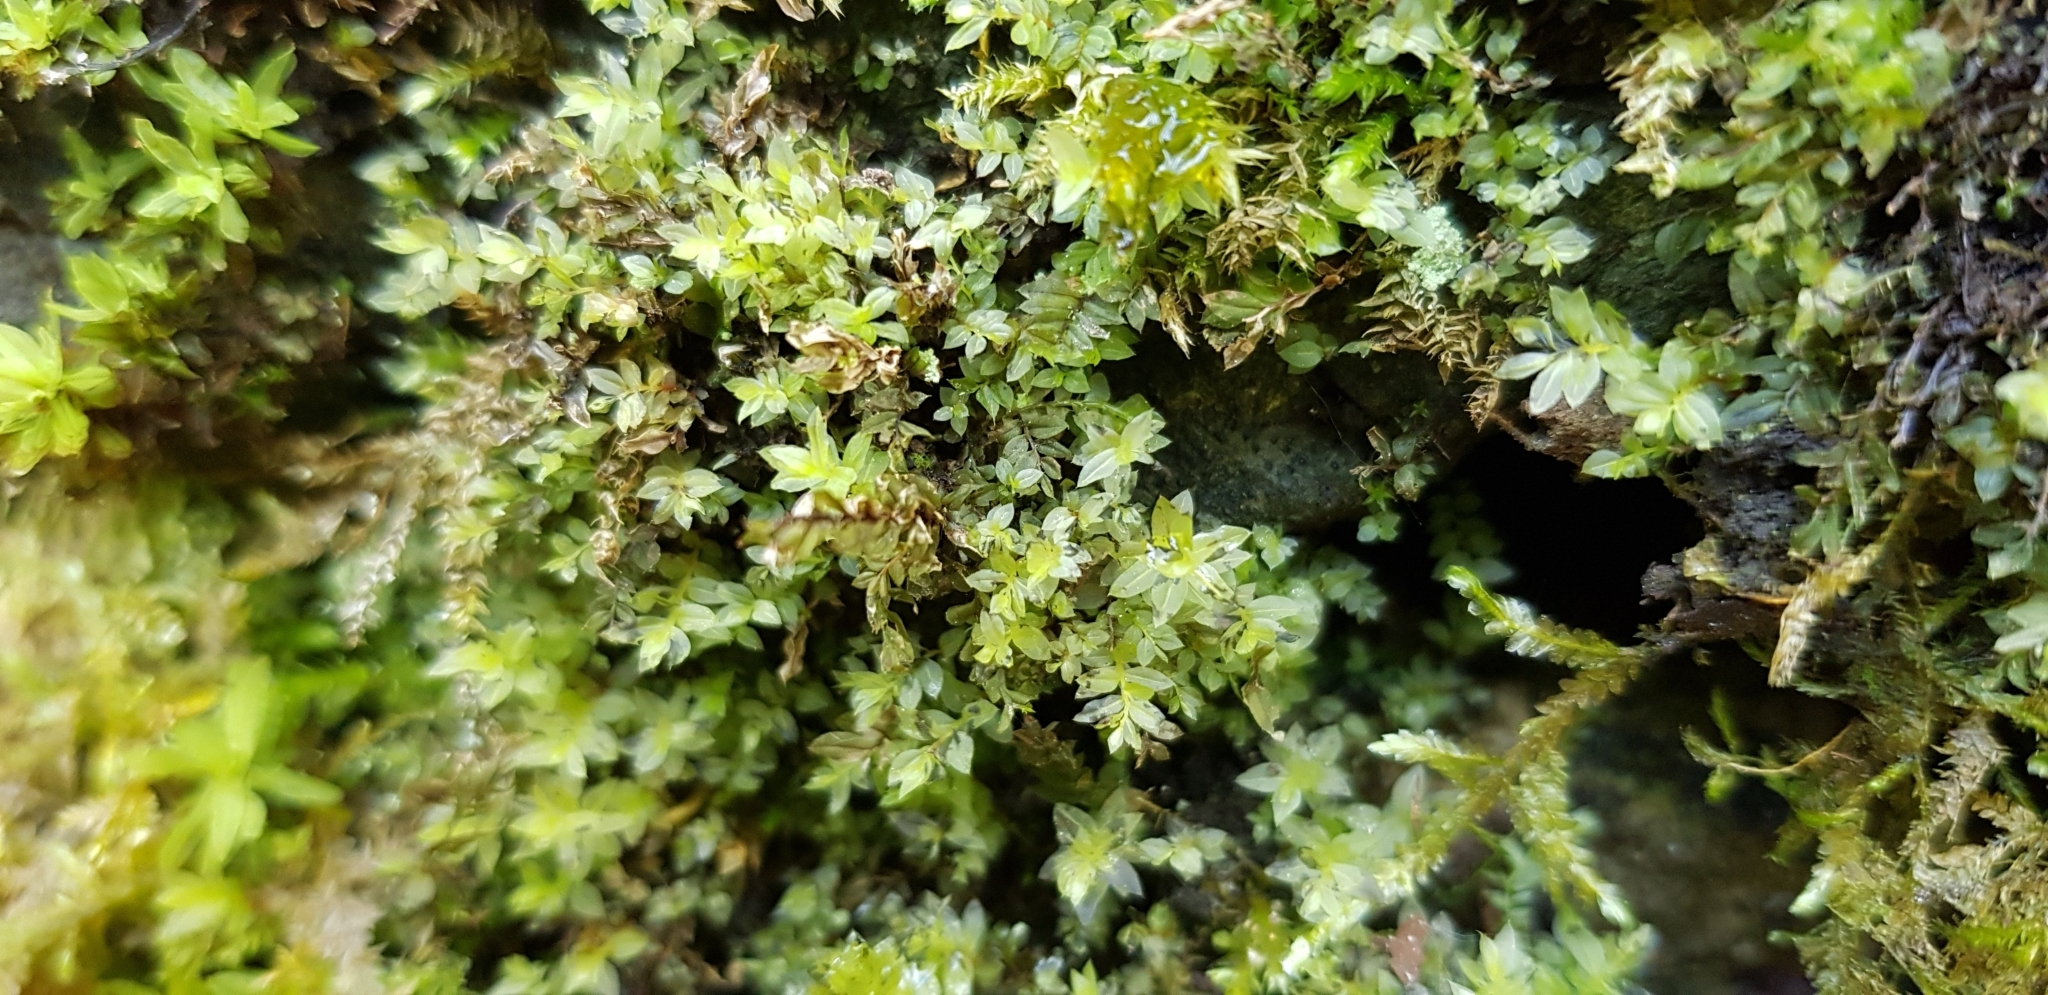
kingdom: Plantae
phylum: Bryophyta
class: Bryopsida
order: Bryales
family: Mniaceae
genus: Mnium
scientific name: Mnium stellare
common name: Star leafy moss
